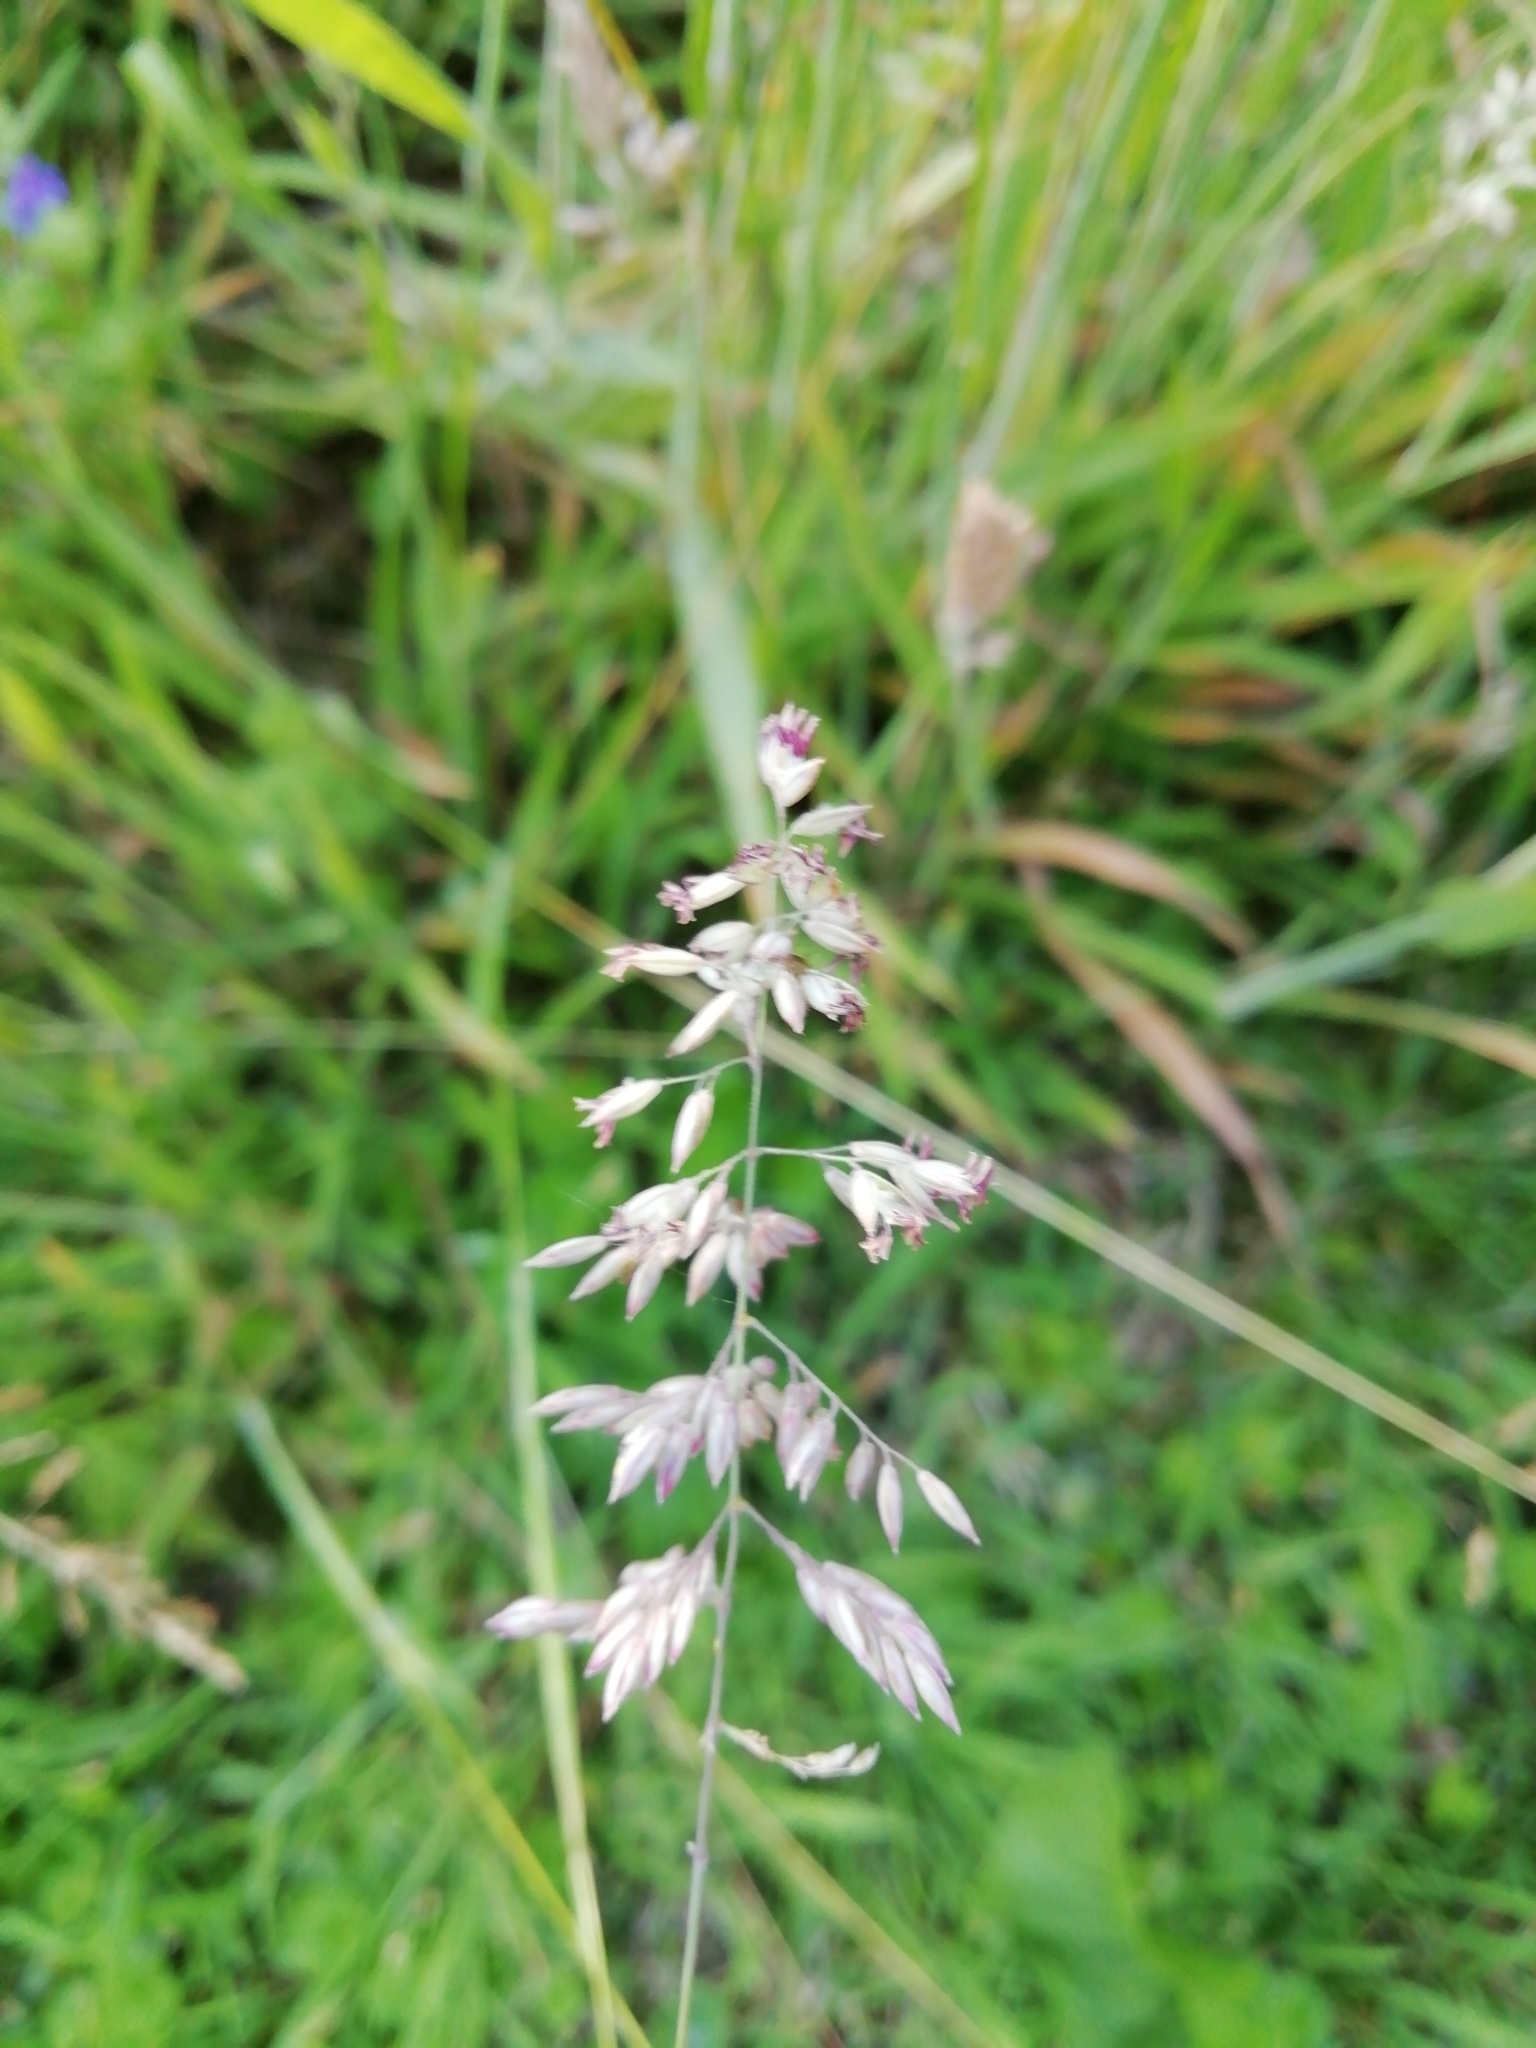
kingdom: Plantae
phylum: Tracheophyta
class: Liliopsida
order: Poales
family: Poaceae
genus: Holcus
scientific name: Holcus lanatus
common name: Yorkshire-fog
